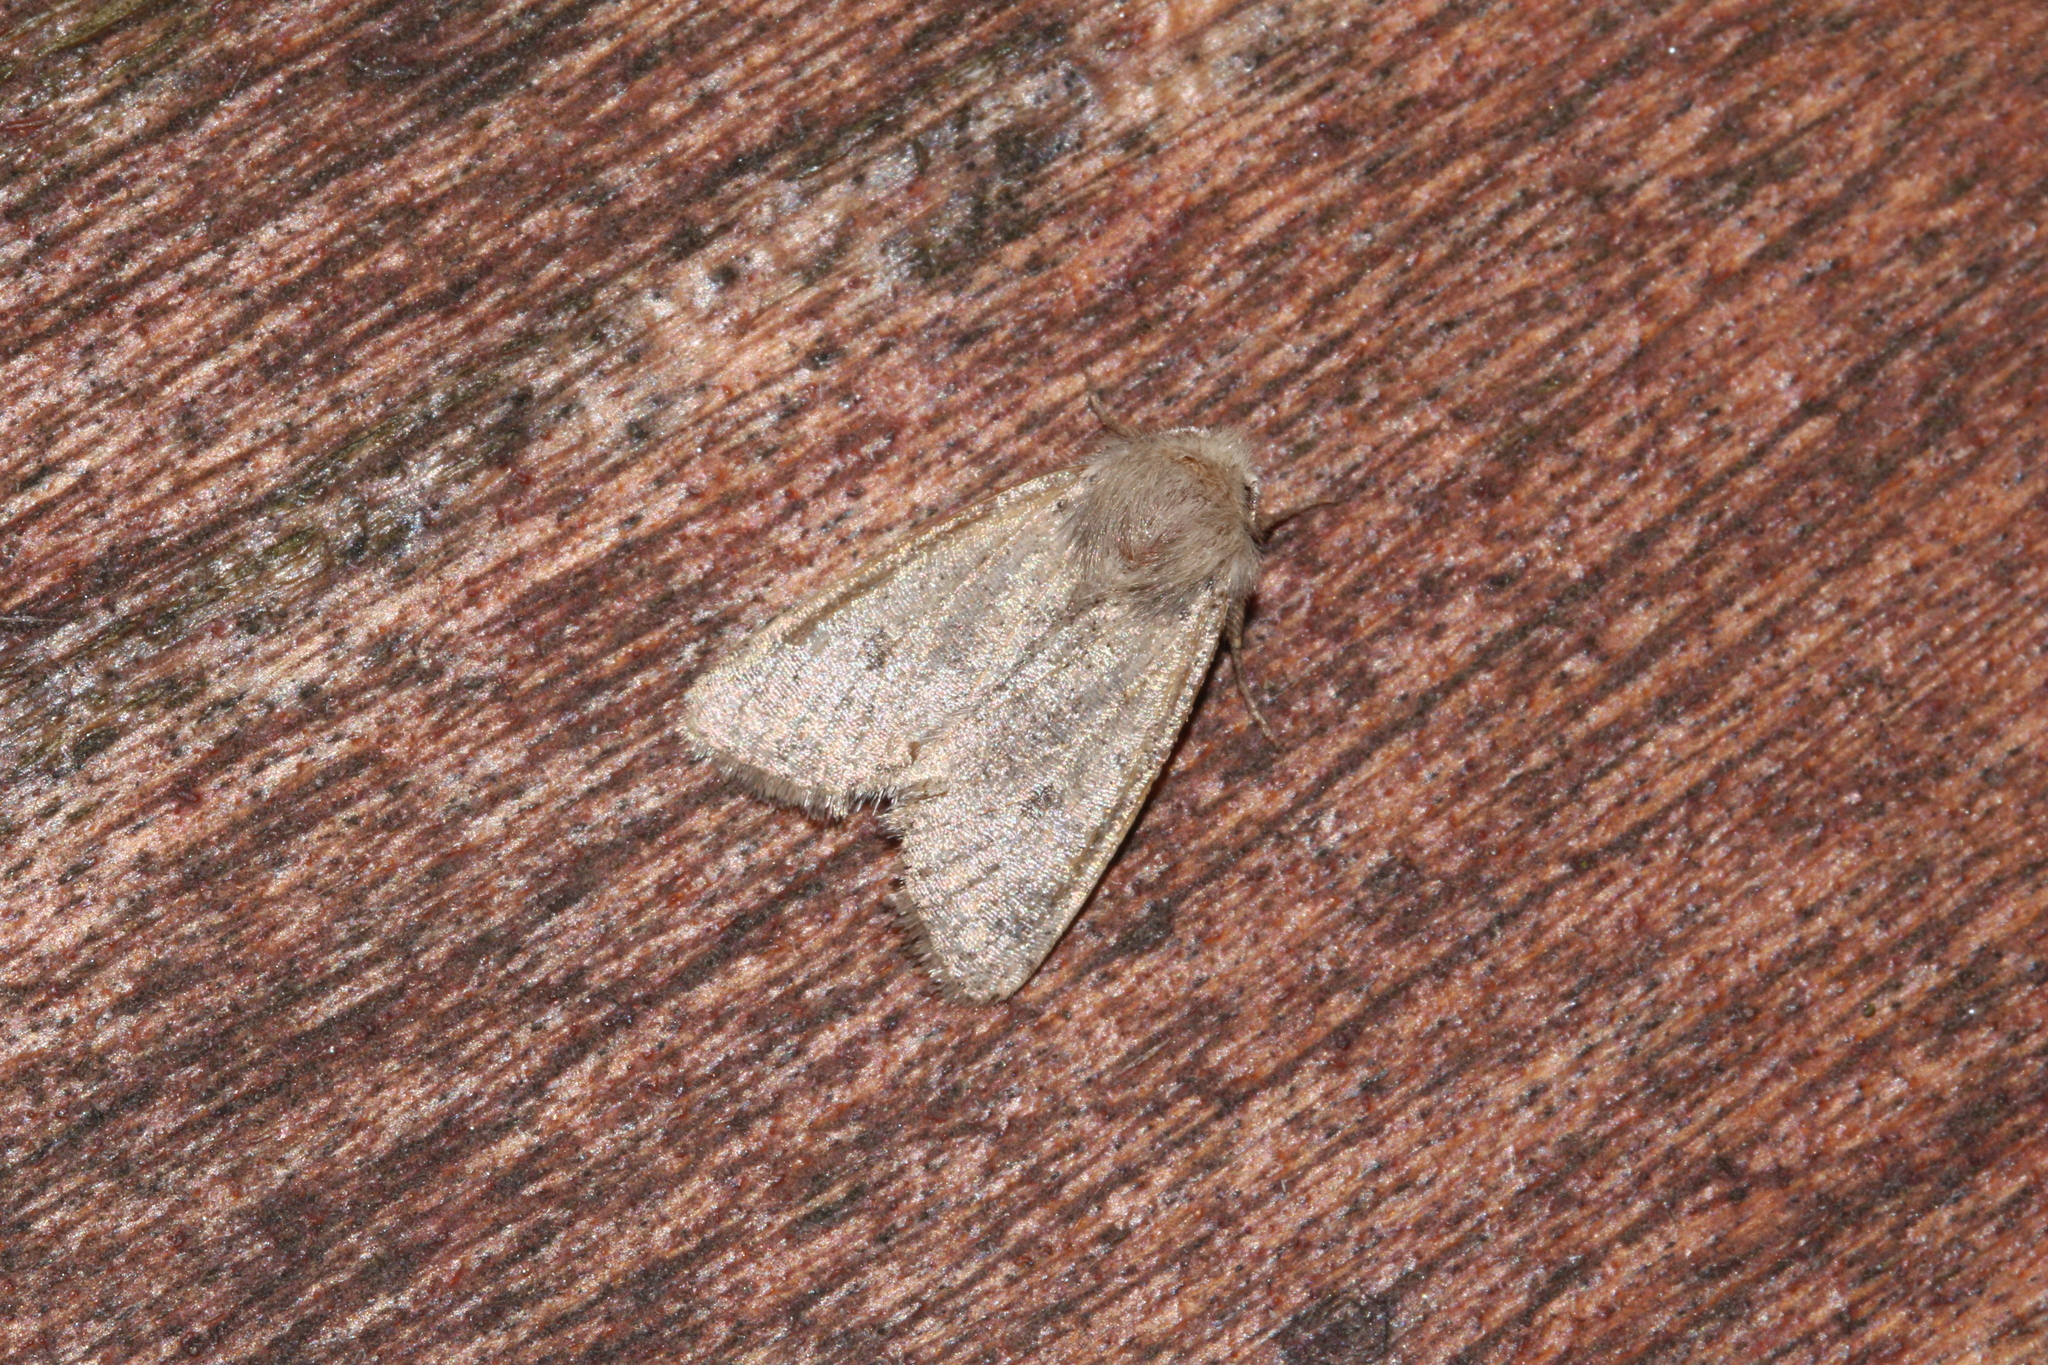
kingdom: Animalia
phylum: Arthropoda
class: Insecta
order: Lepidoptera
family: Noctuidae
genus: Orthosia
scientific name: Orthosia cruda
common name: Small quaker
